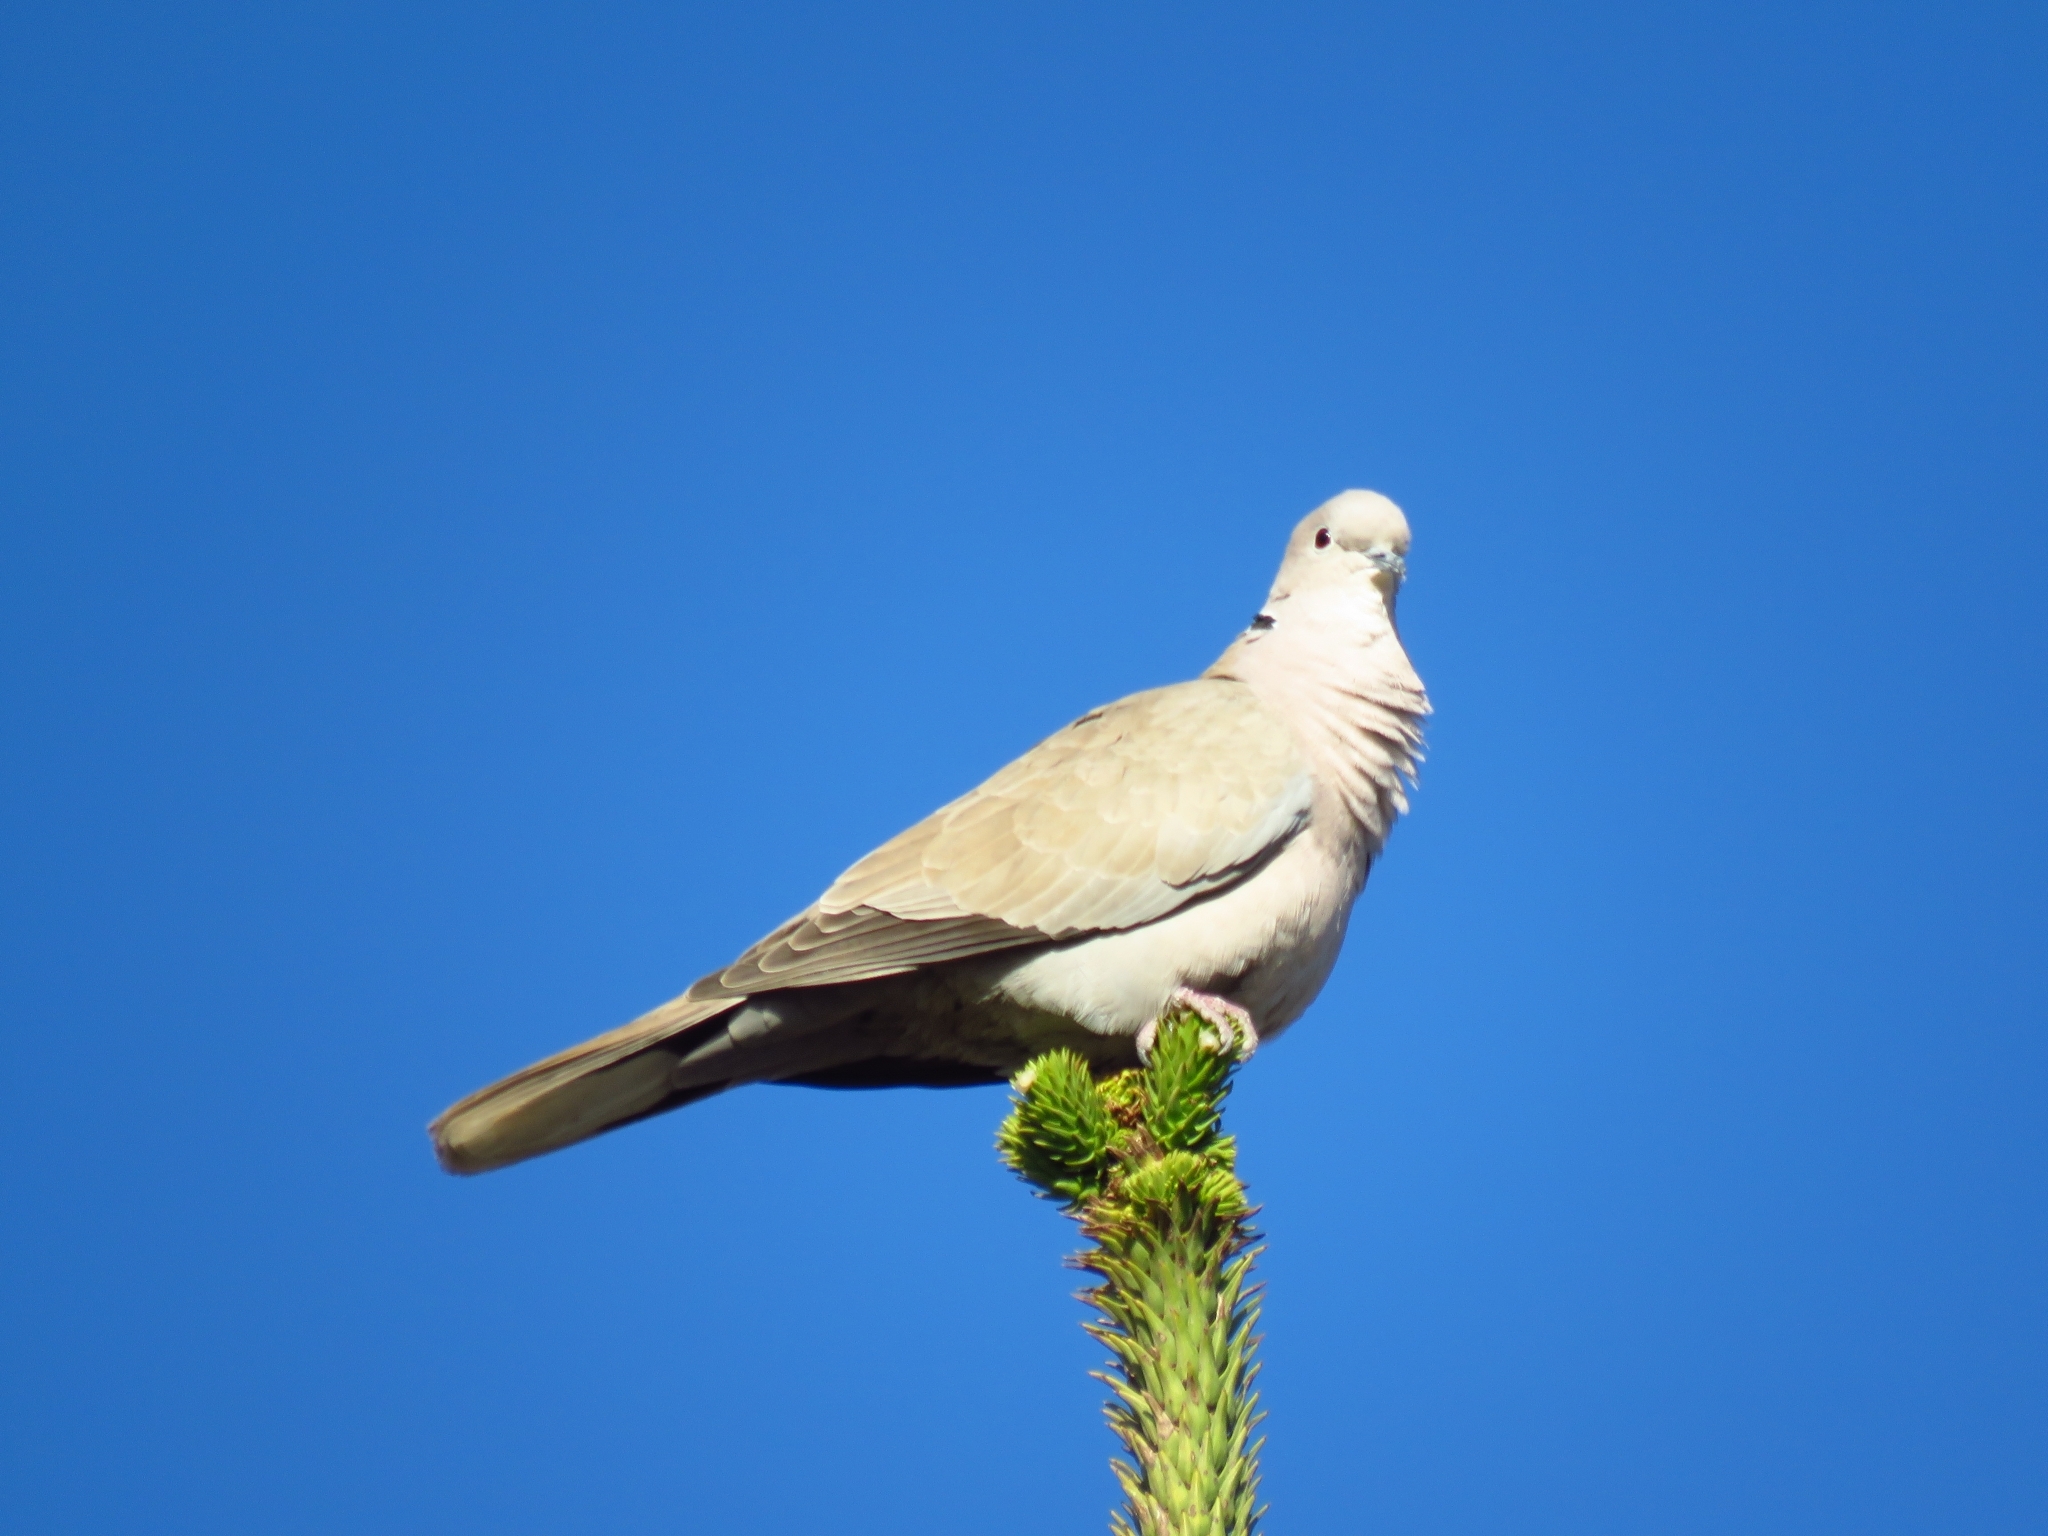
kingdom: Animalia
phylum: Chordata
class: Aves
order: Columbiformes
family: Columbidae
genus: Streptopelia
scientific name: Streptopelia decaocto
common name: Eurasian collared dove
